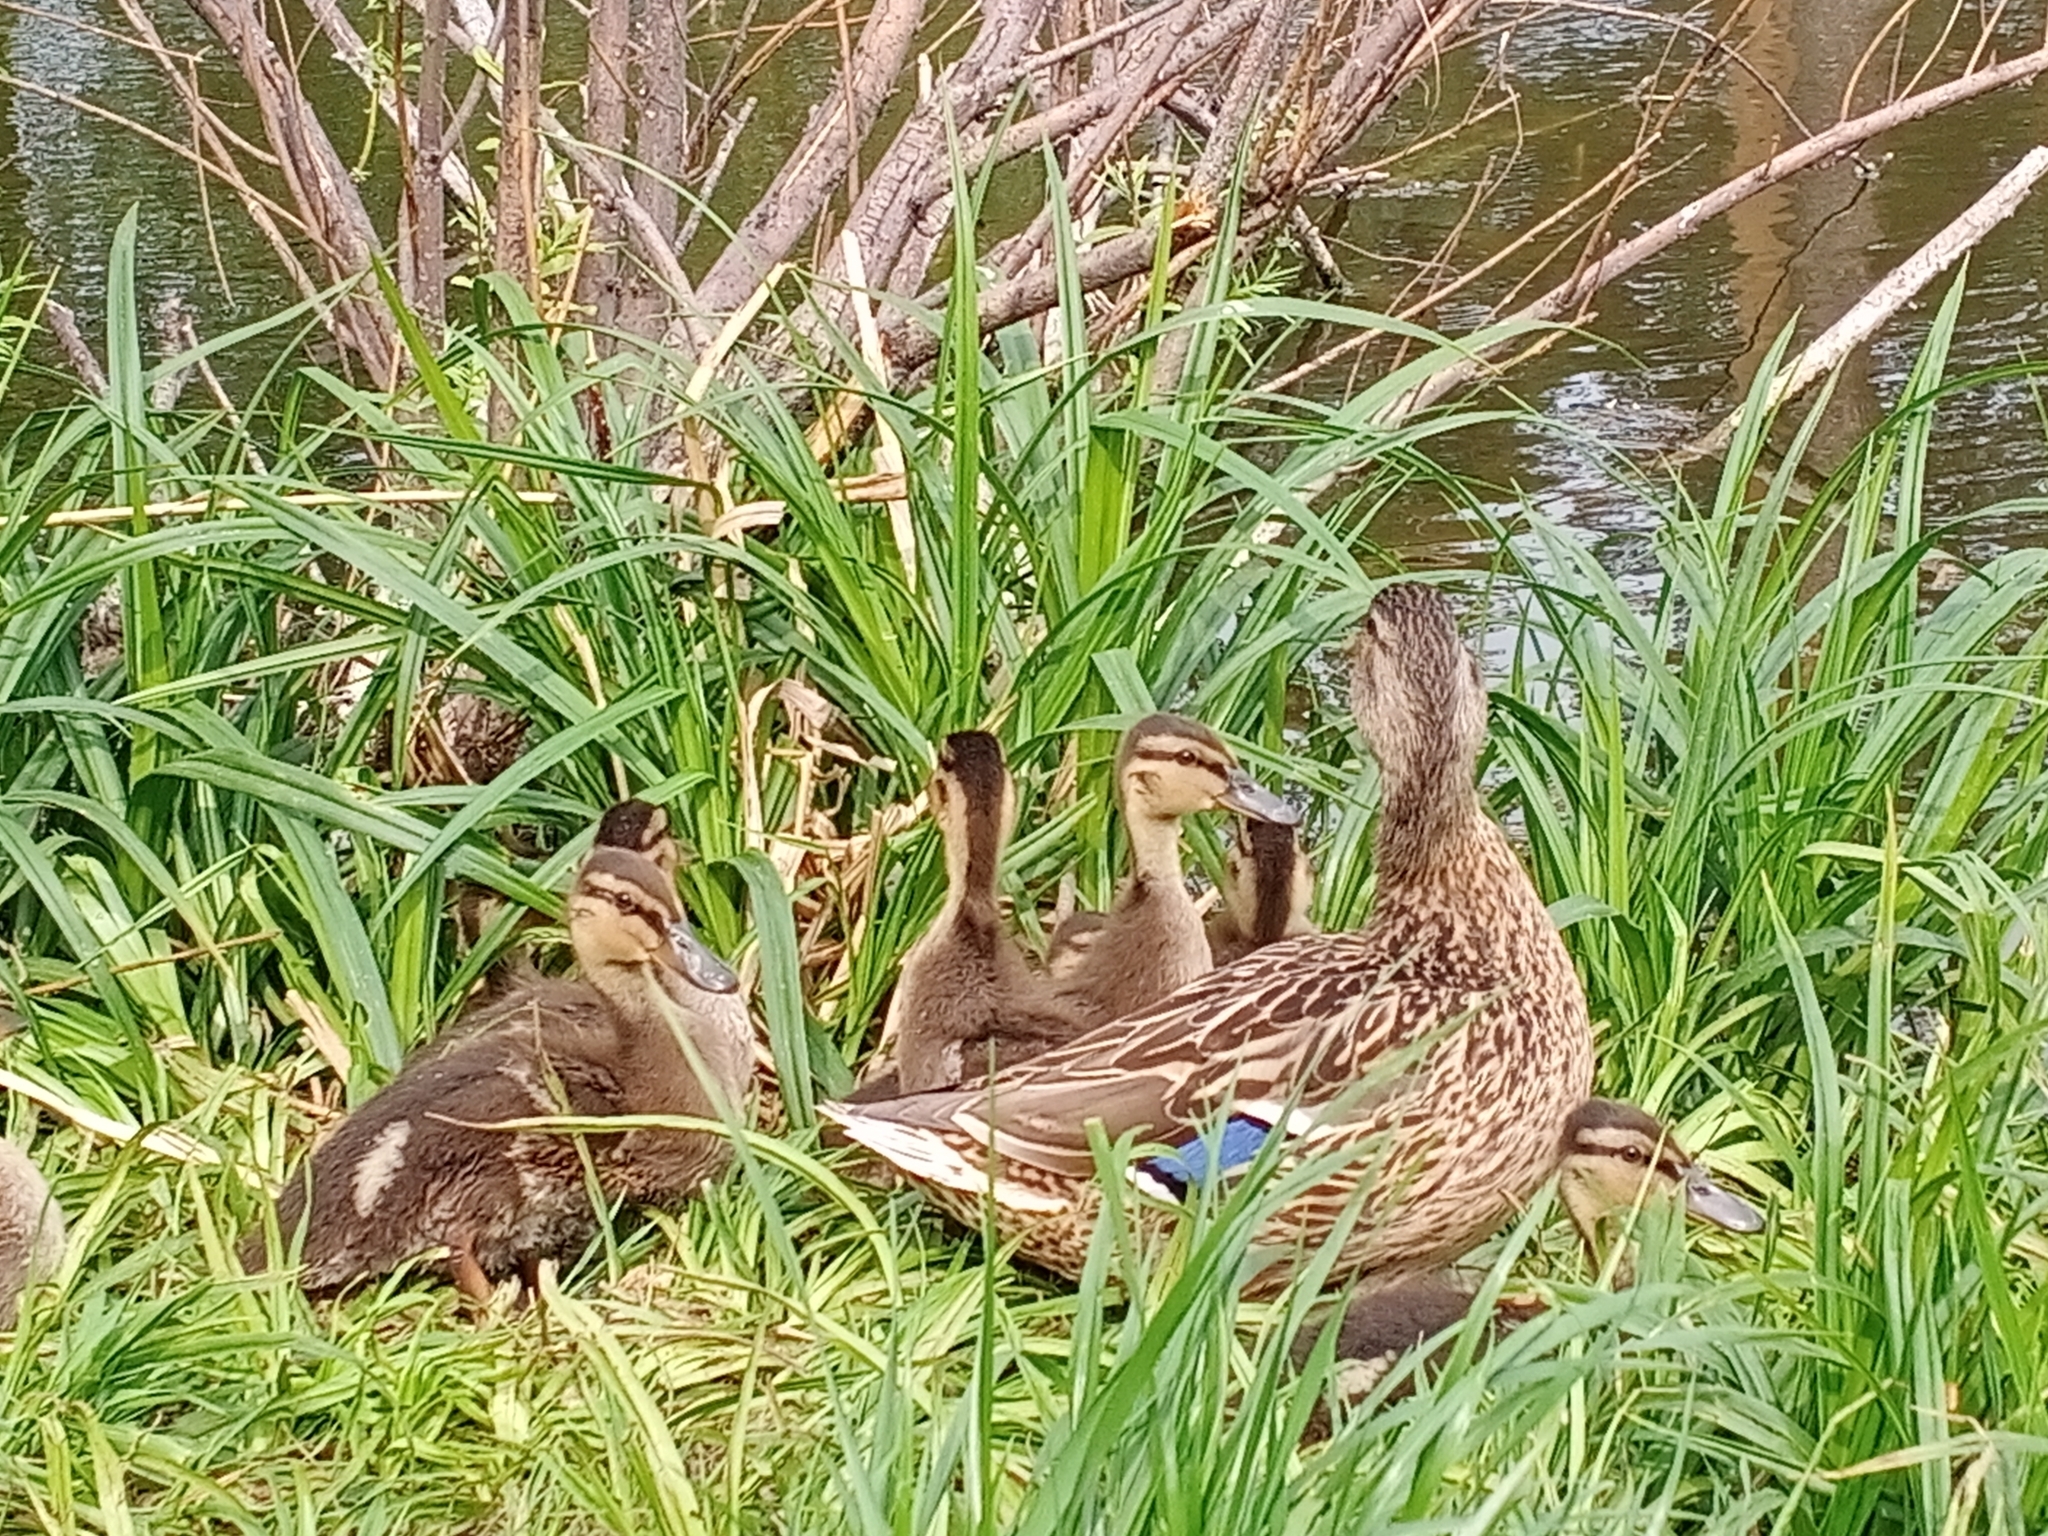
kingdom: Animalia
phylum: Chordata
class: Aves
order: Anseriformes
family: Anatidae
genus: Anas
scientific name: Anas platyrhynchos
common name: Mallard
